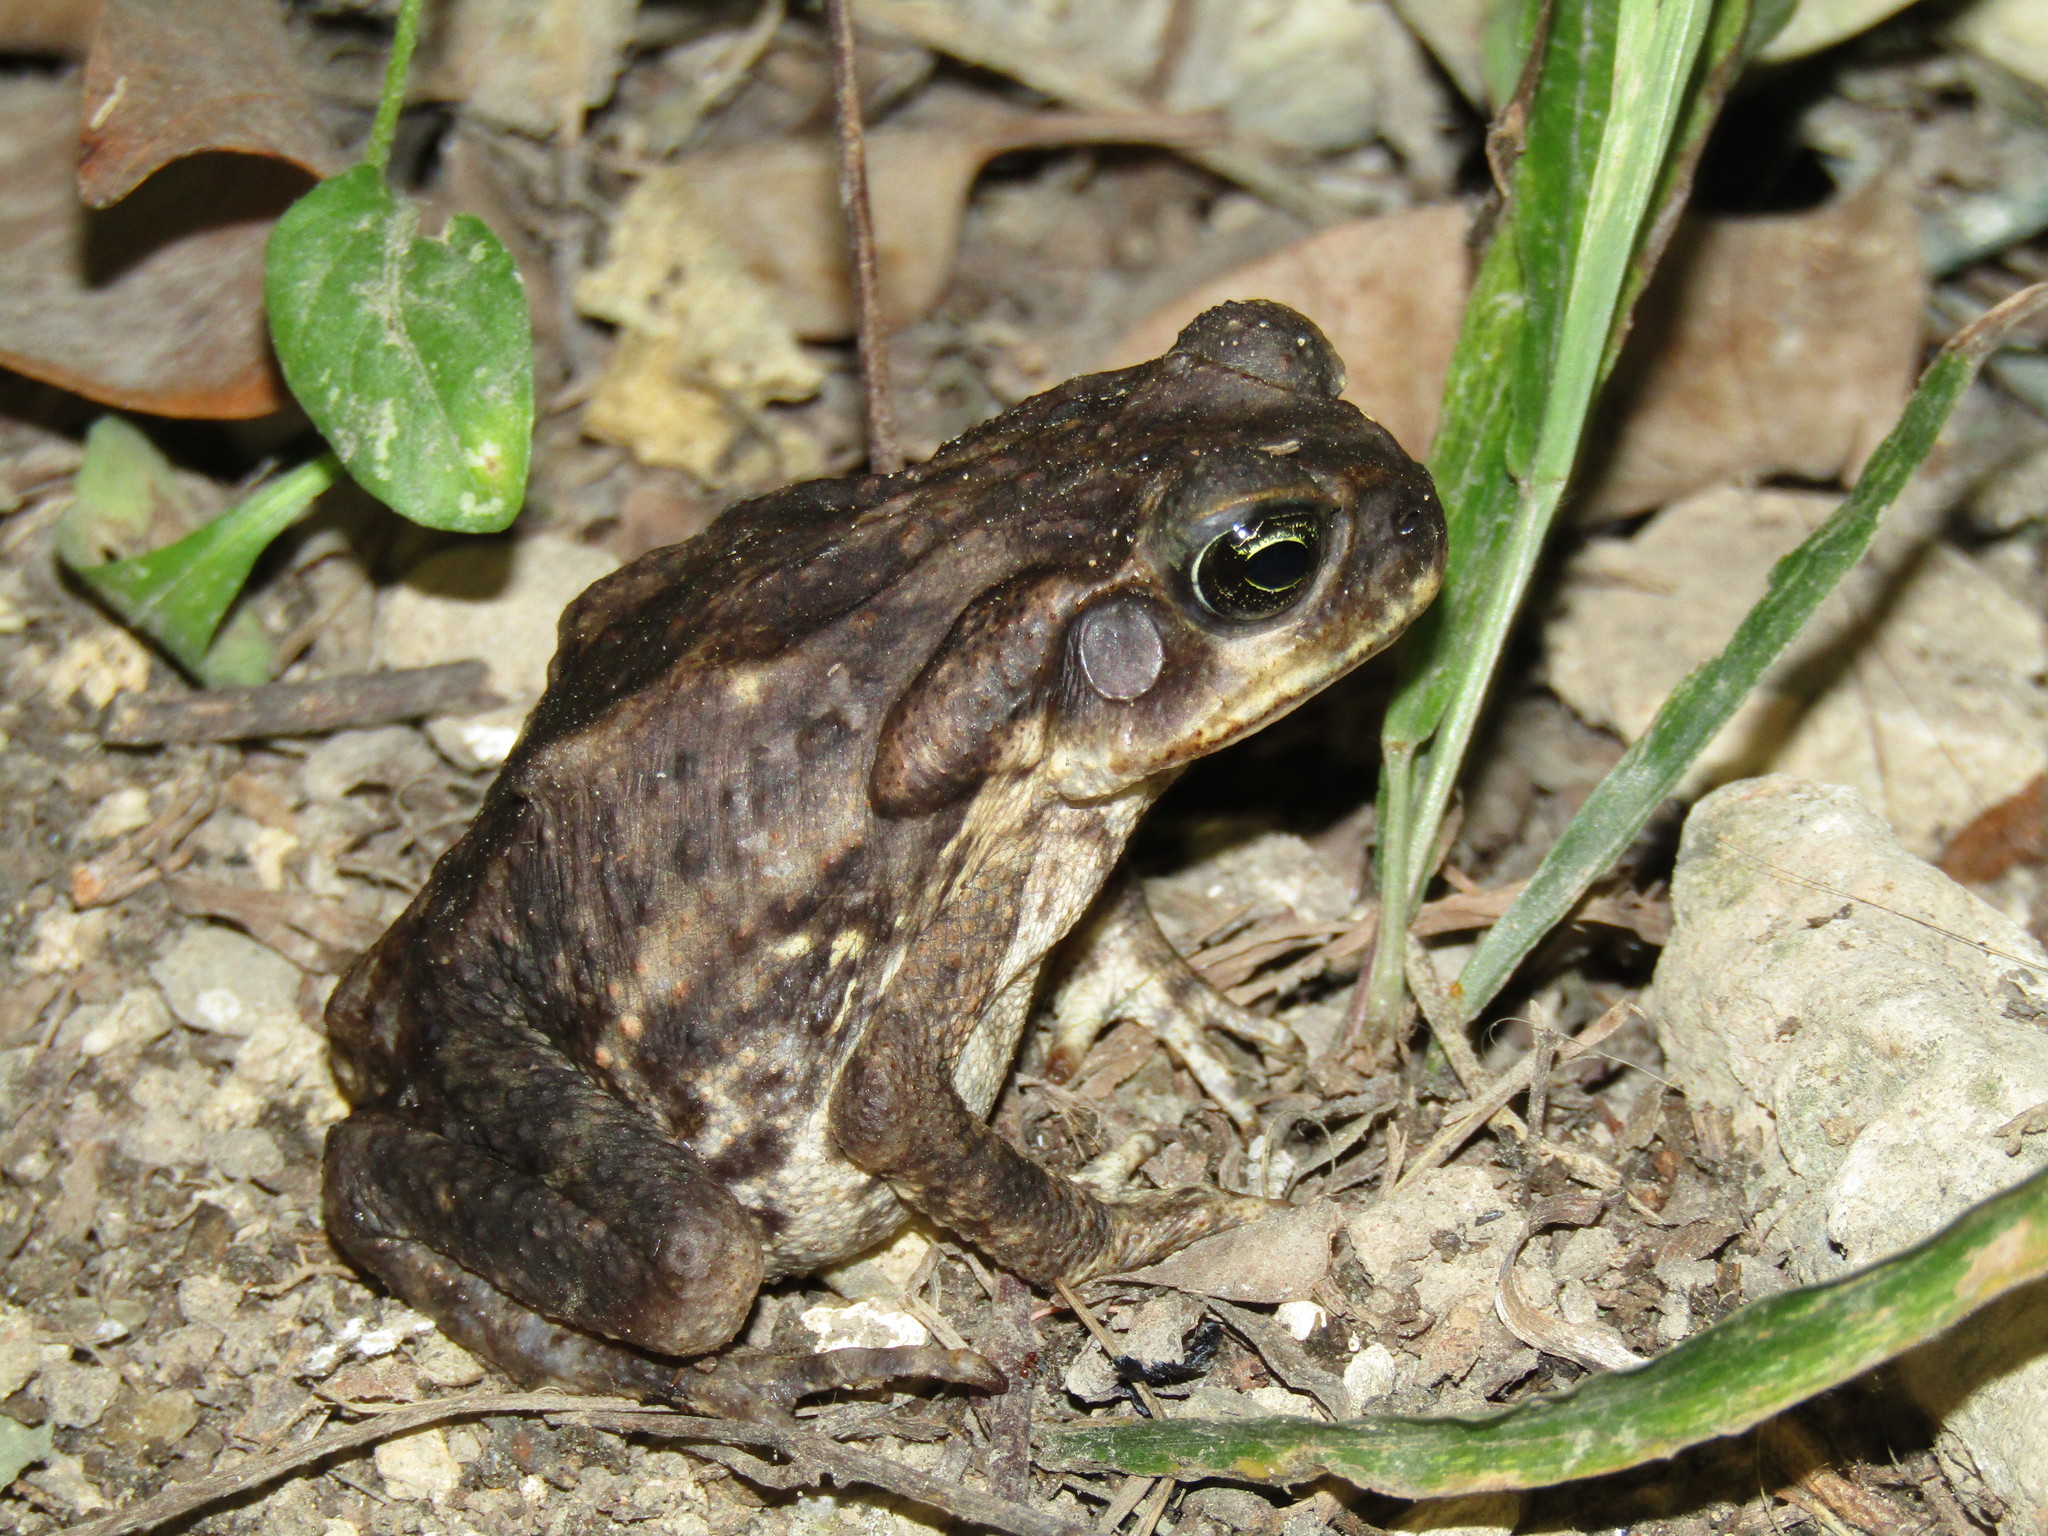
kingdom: Animalia
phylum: Chordata
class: Amphibia
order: Anura
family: Bufonidae
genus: Rhinella
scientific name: Rhinella horribilis
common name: Mesoamerican cane toad
